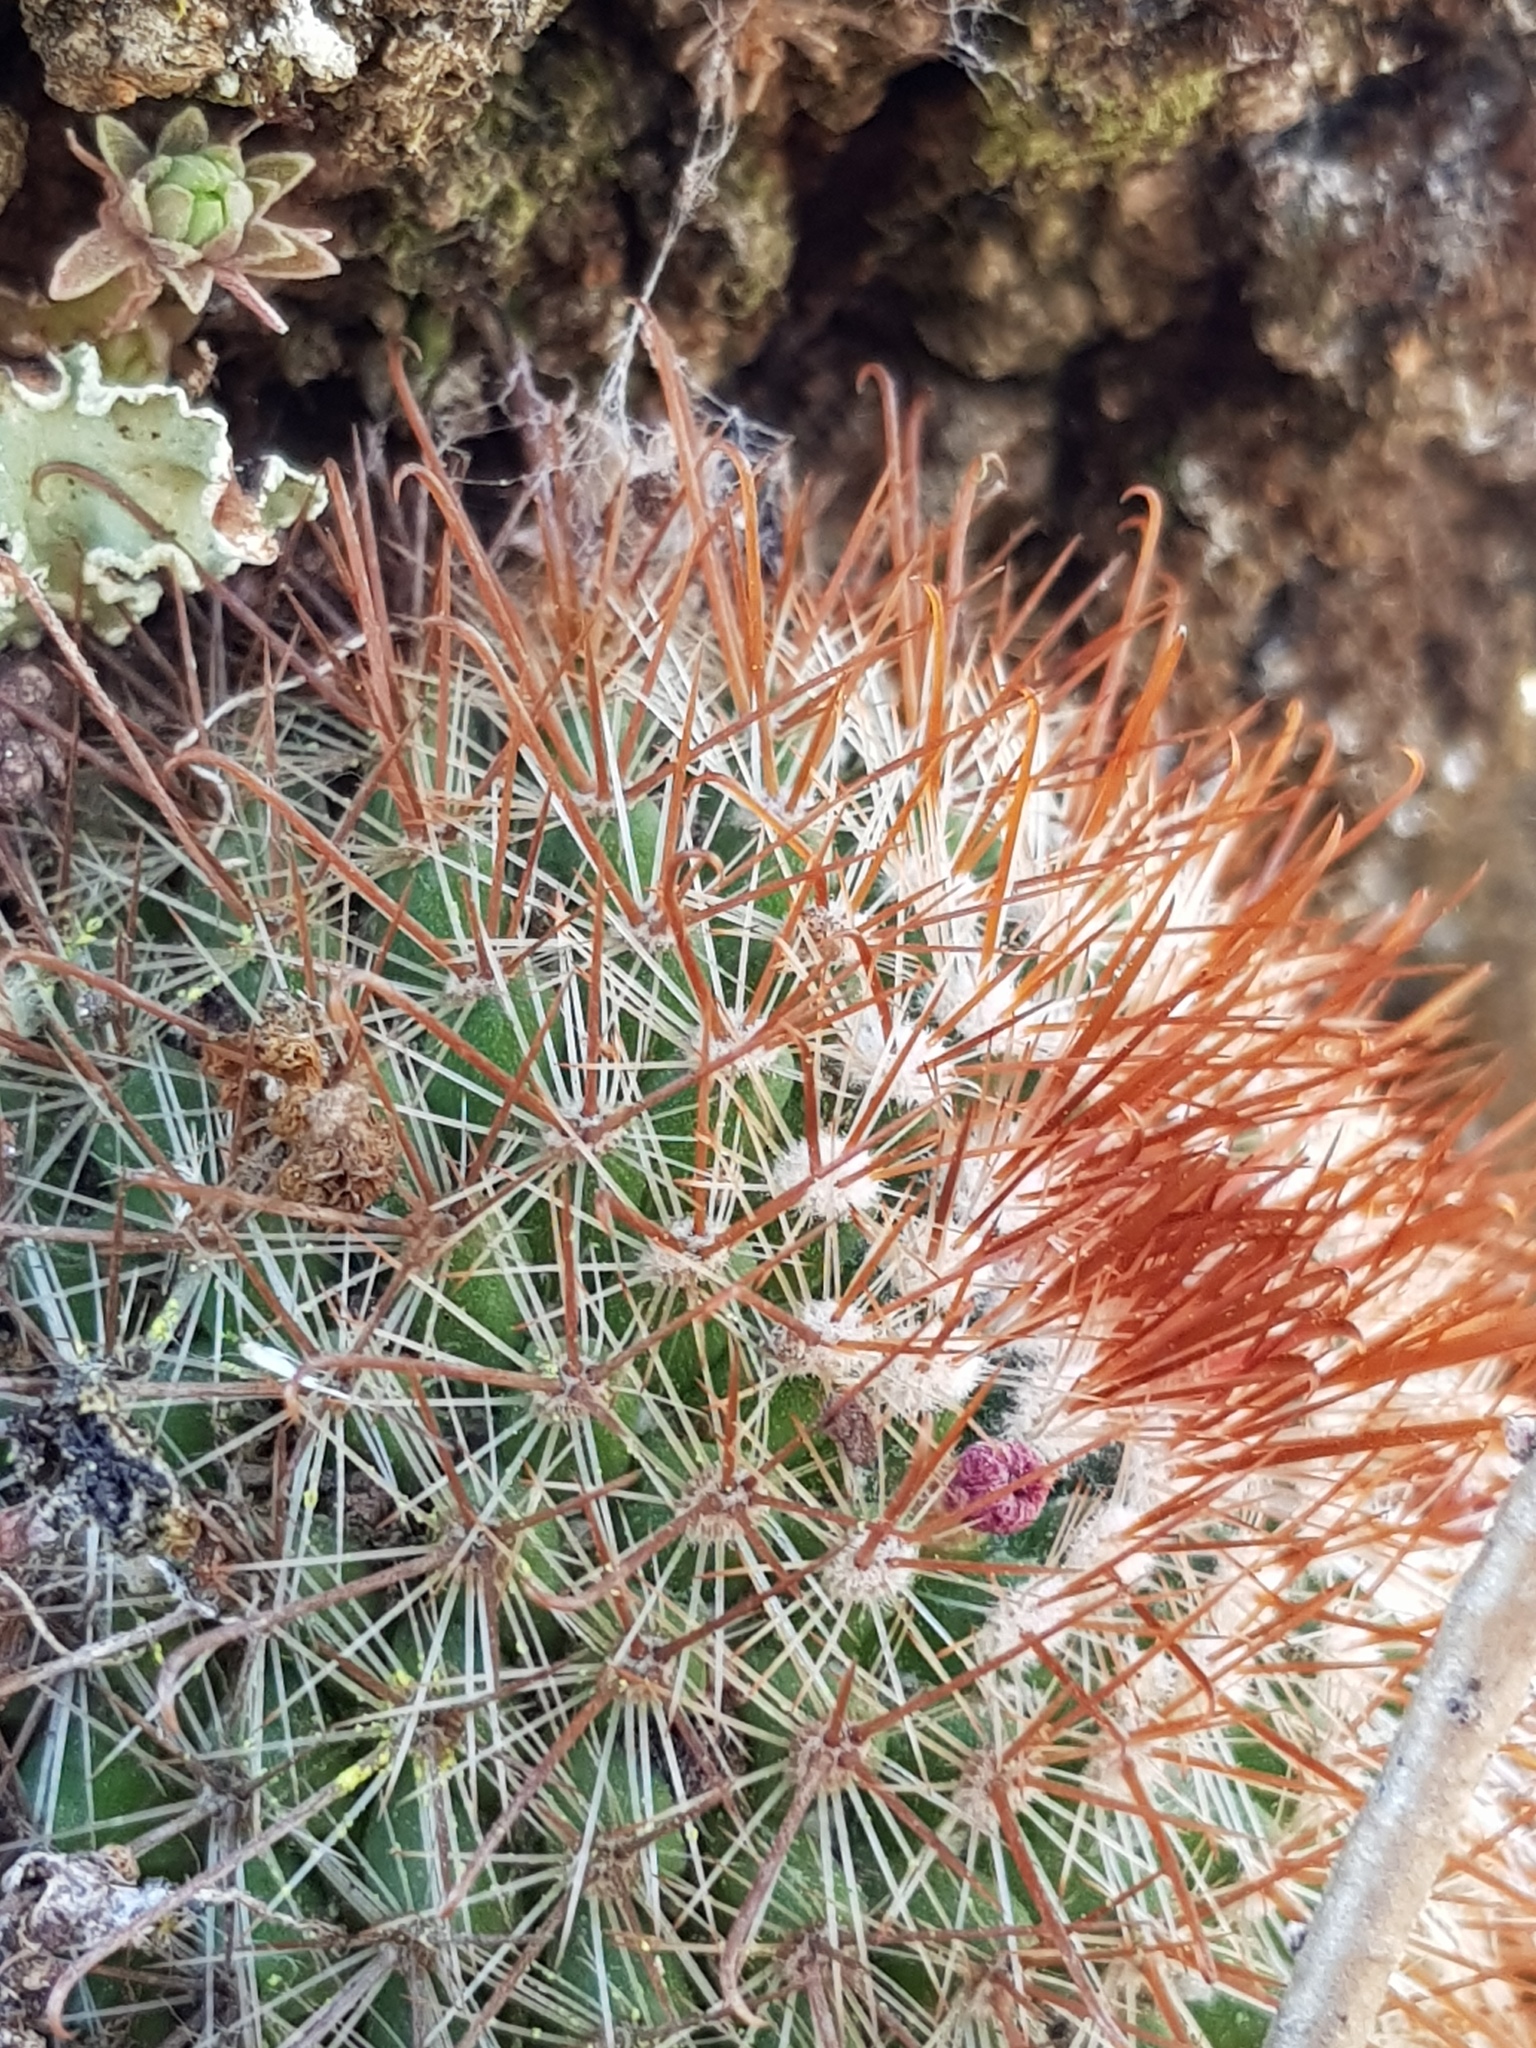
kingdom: Plantae
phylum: Tracheophyta
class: Magnoliopsida
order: Caryophyllales
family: Cactaceae
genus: Mammillaria
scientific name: Mammillaria rekoi
